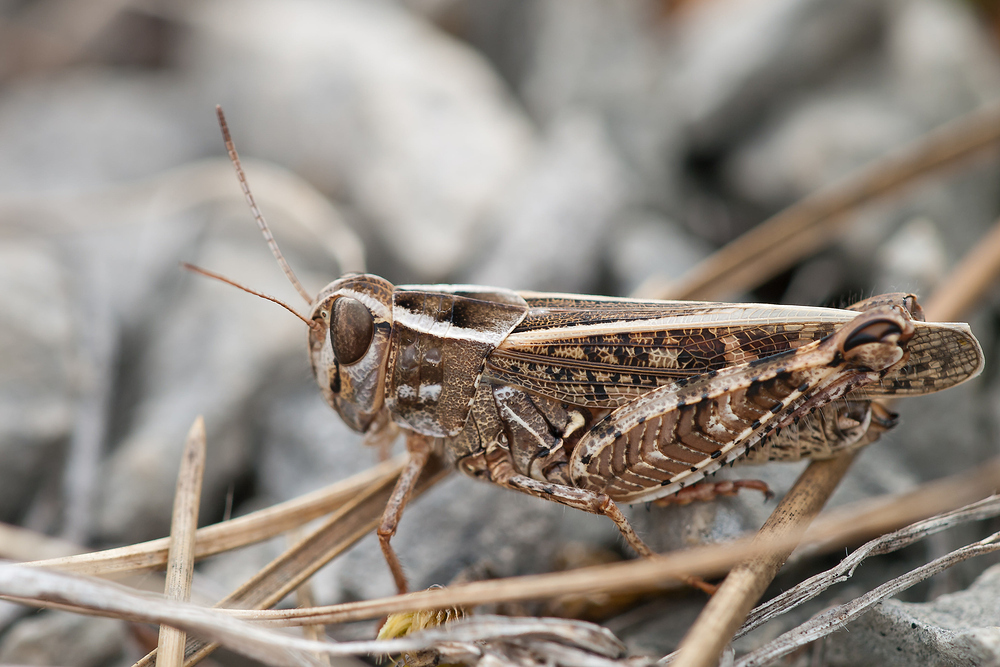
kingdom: Animalia
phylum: Arthropoda
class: Insecta
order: Orthoptera
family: Acrididae
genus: Calliptamus
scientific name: Calliptamus italicus
